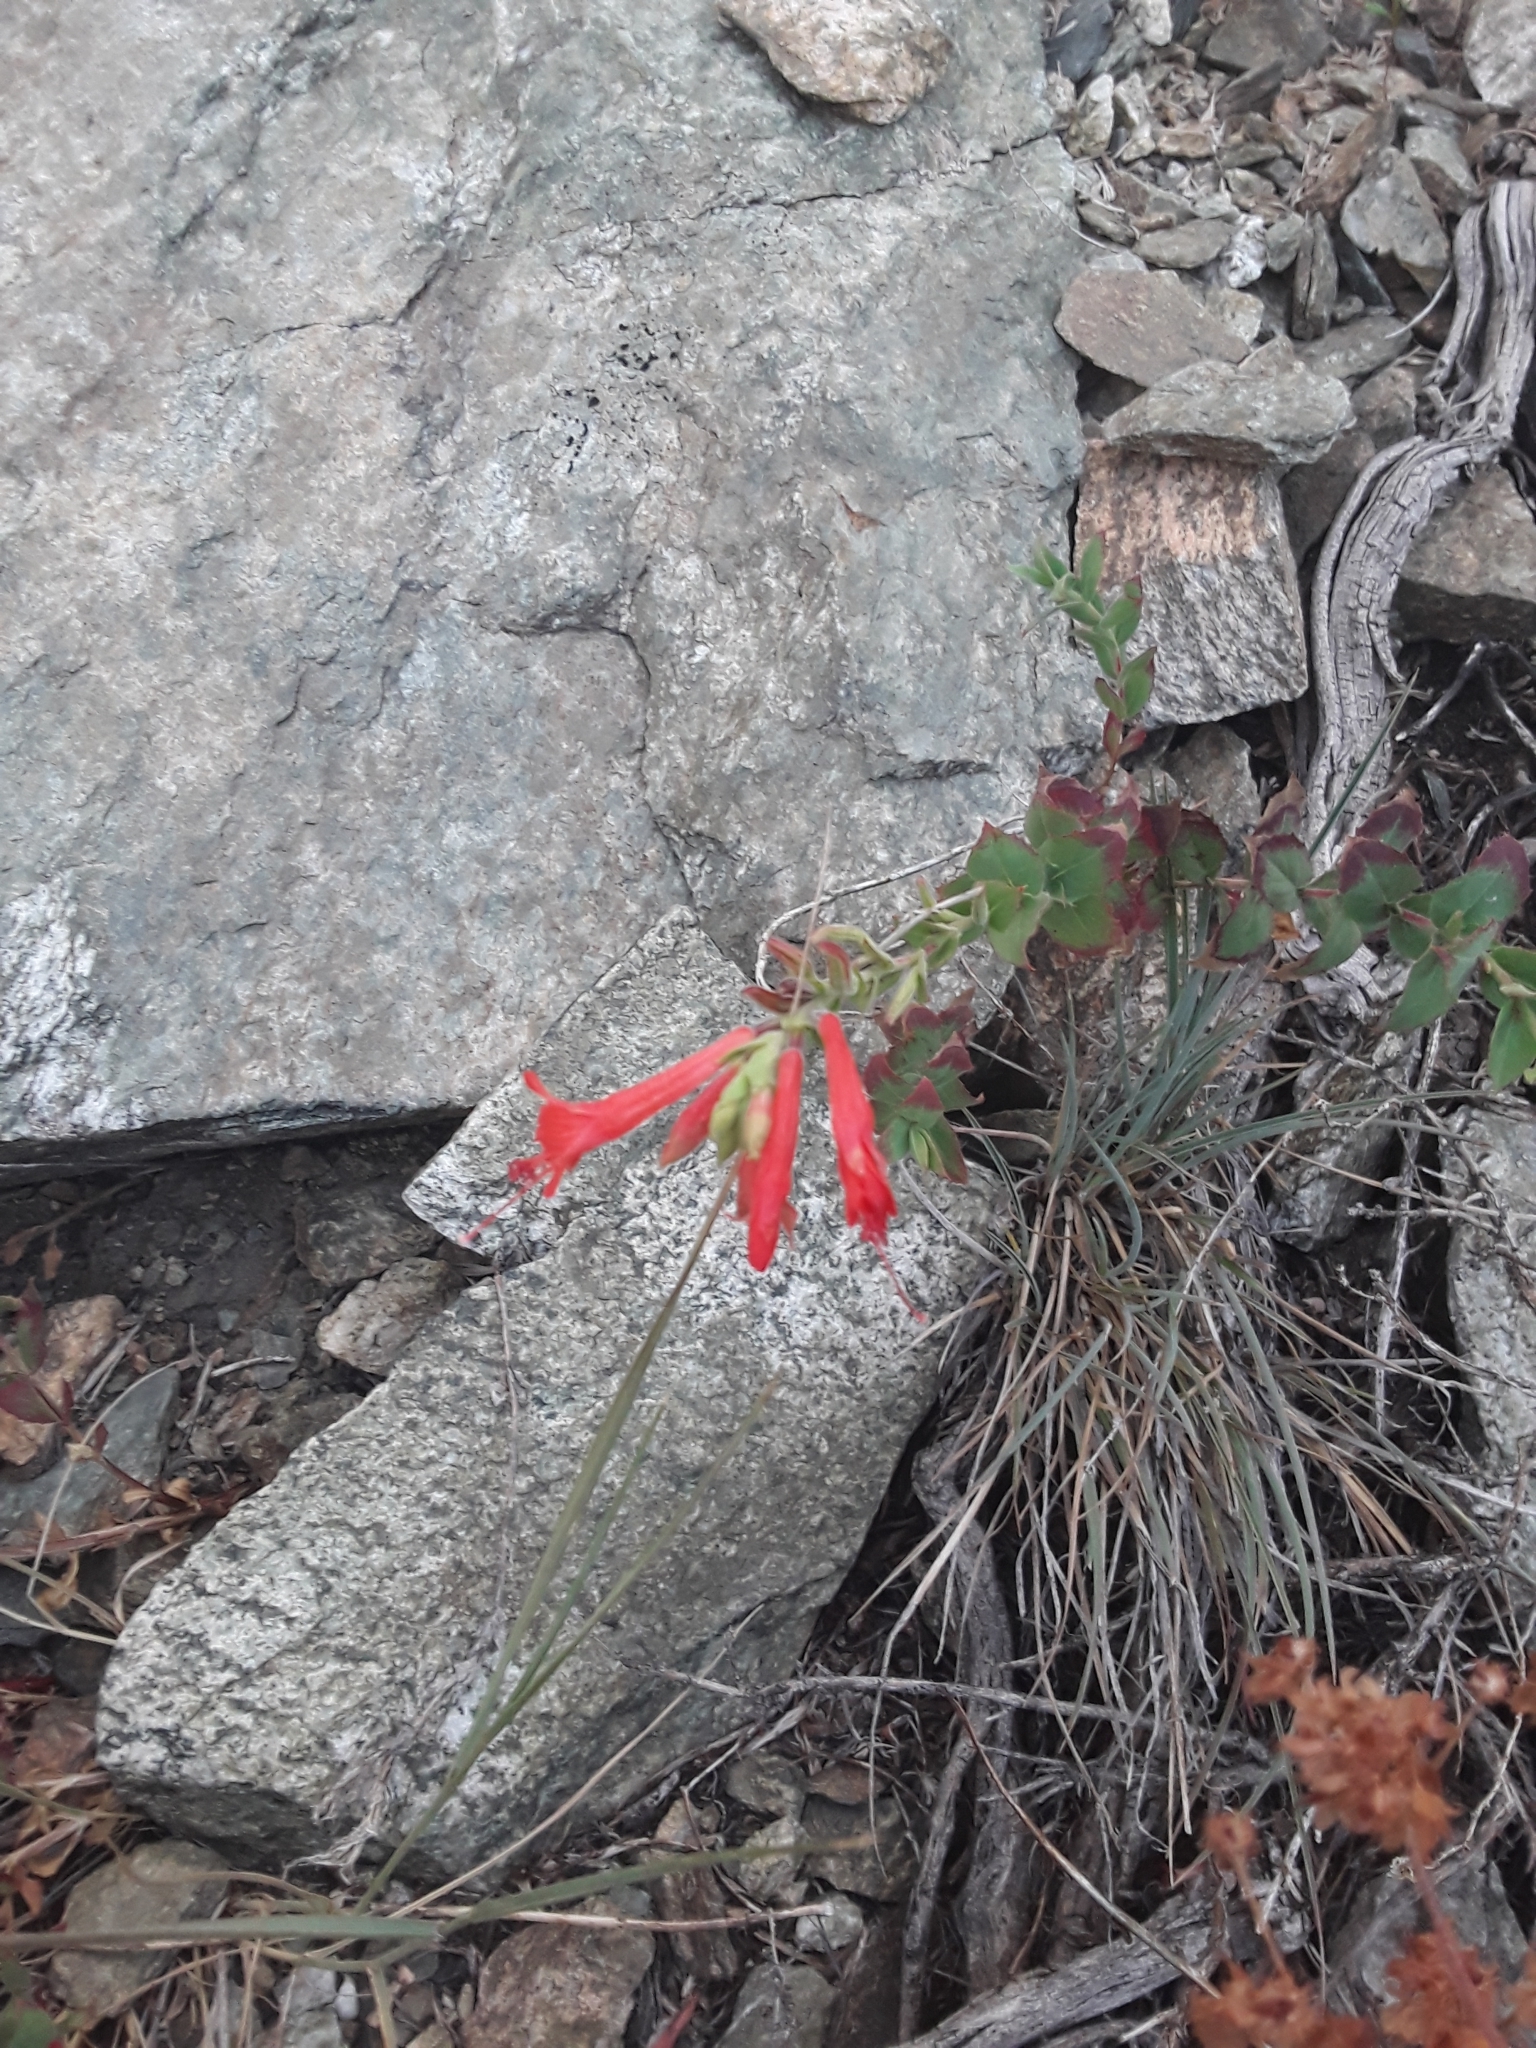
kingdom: Plantae
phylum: Tracheophyta
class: Magnoliopsida
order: Myrtales
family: Onagraceae
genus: Epilobium
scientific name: Epilobium canum
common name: California-fuchsia
